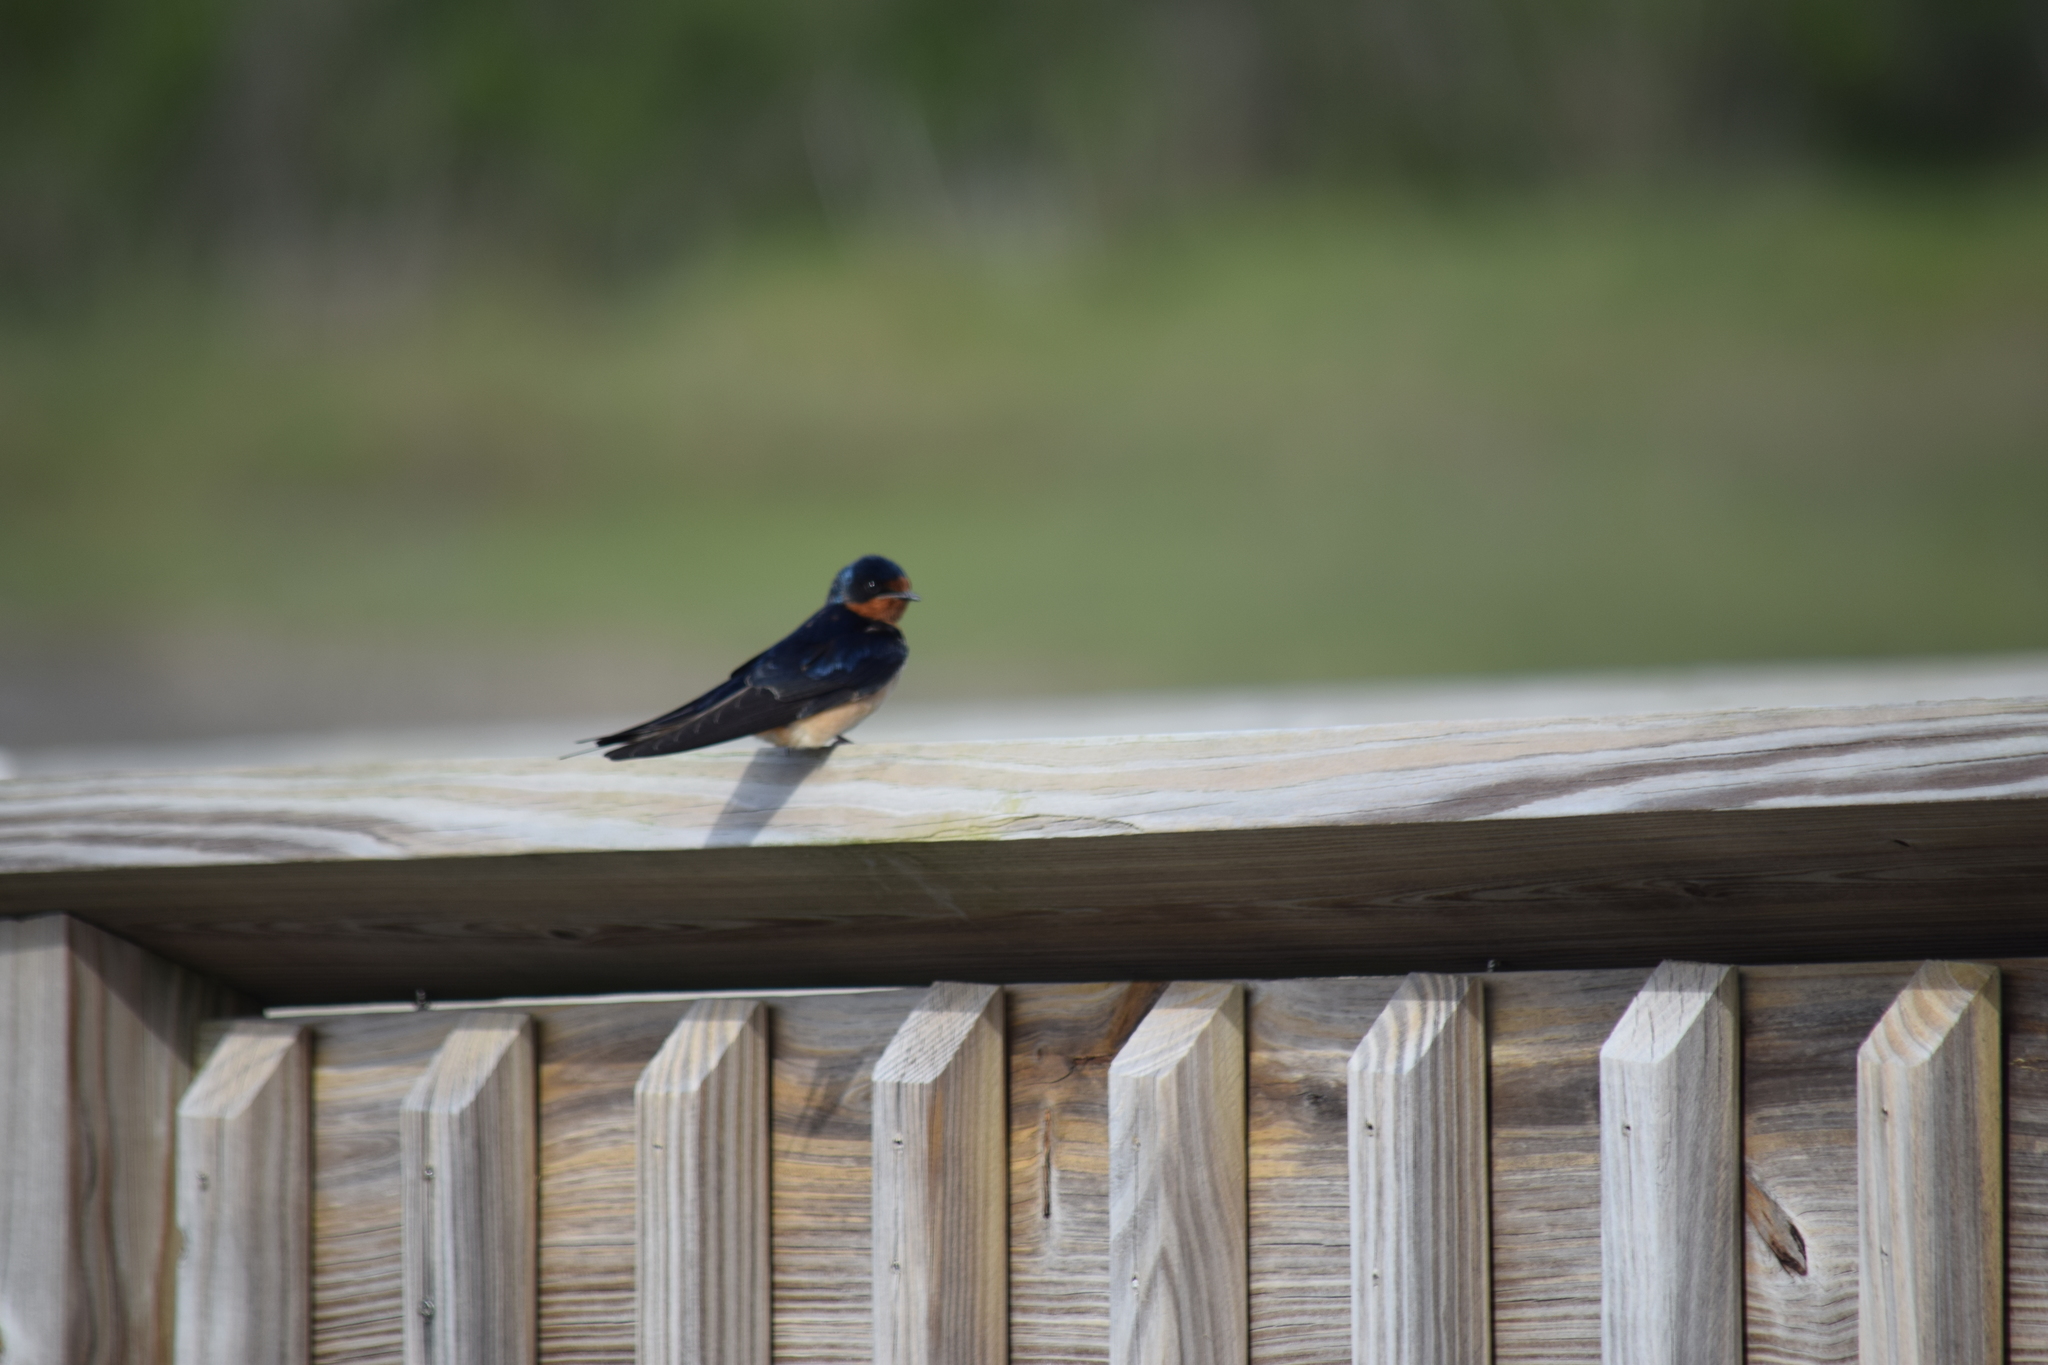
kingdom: Animalia
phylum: Chordata
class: Aves
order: Passeriformes
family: Hirundinidae
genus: Hirundo
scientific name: Hirundo rustica
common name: Barn swallow
